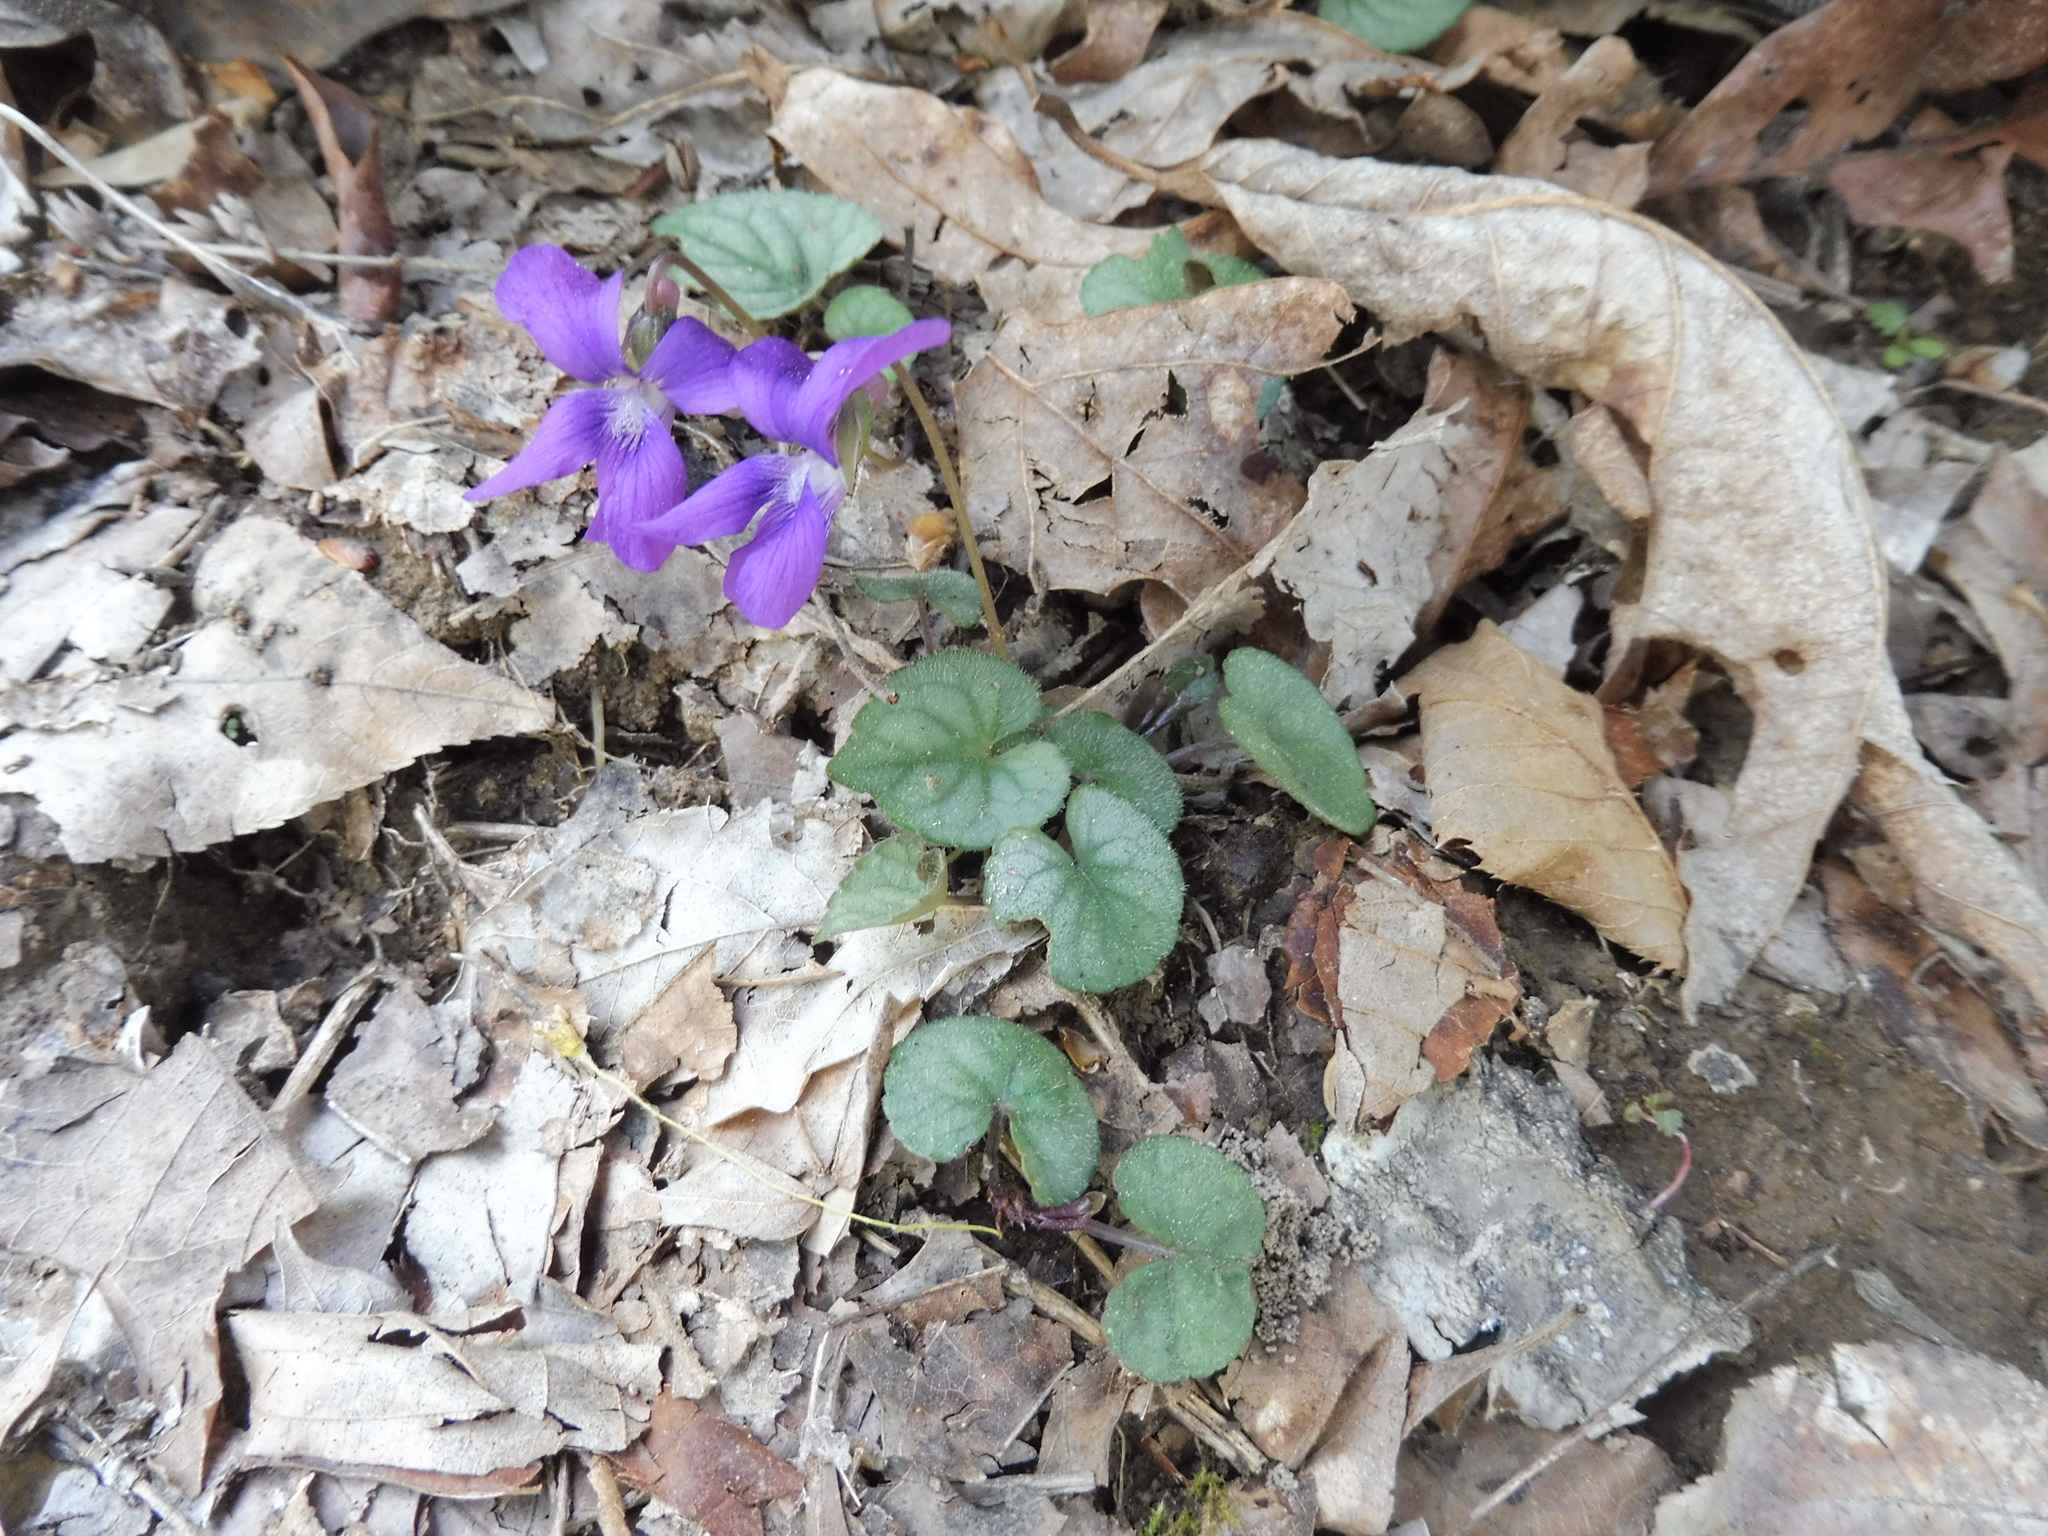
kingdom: Plantae
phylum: Tracheophyta
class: Magnoliopsida
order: Malpighiales
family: Violaceae
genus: Viola
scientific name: Viola hirsutula
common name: Southern wood violet
